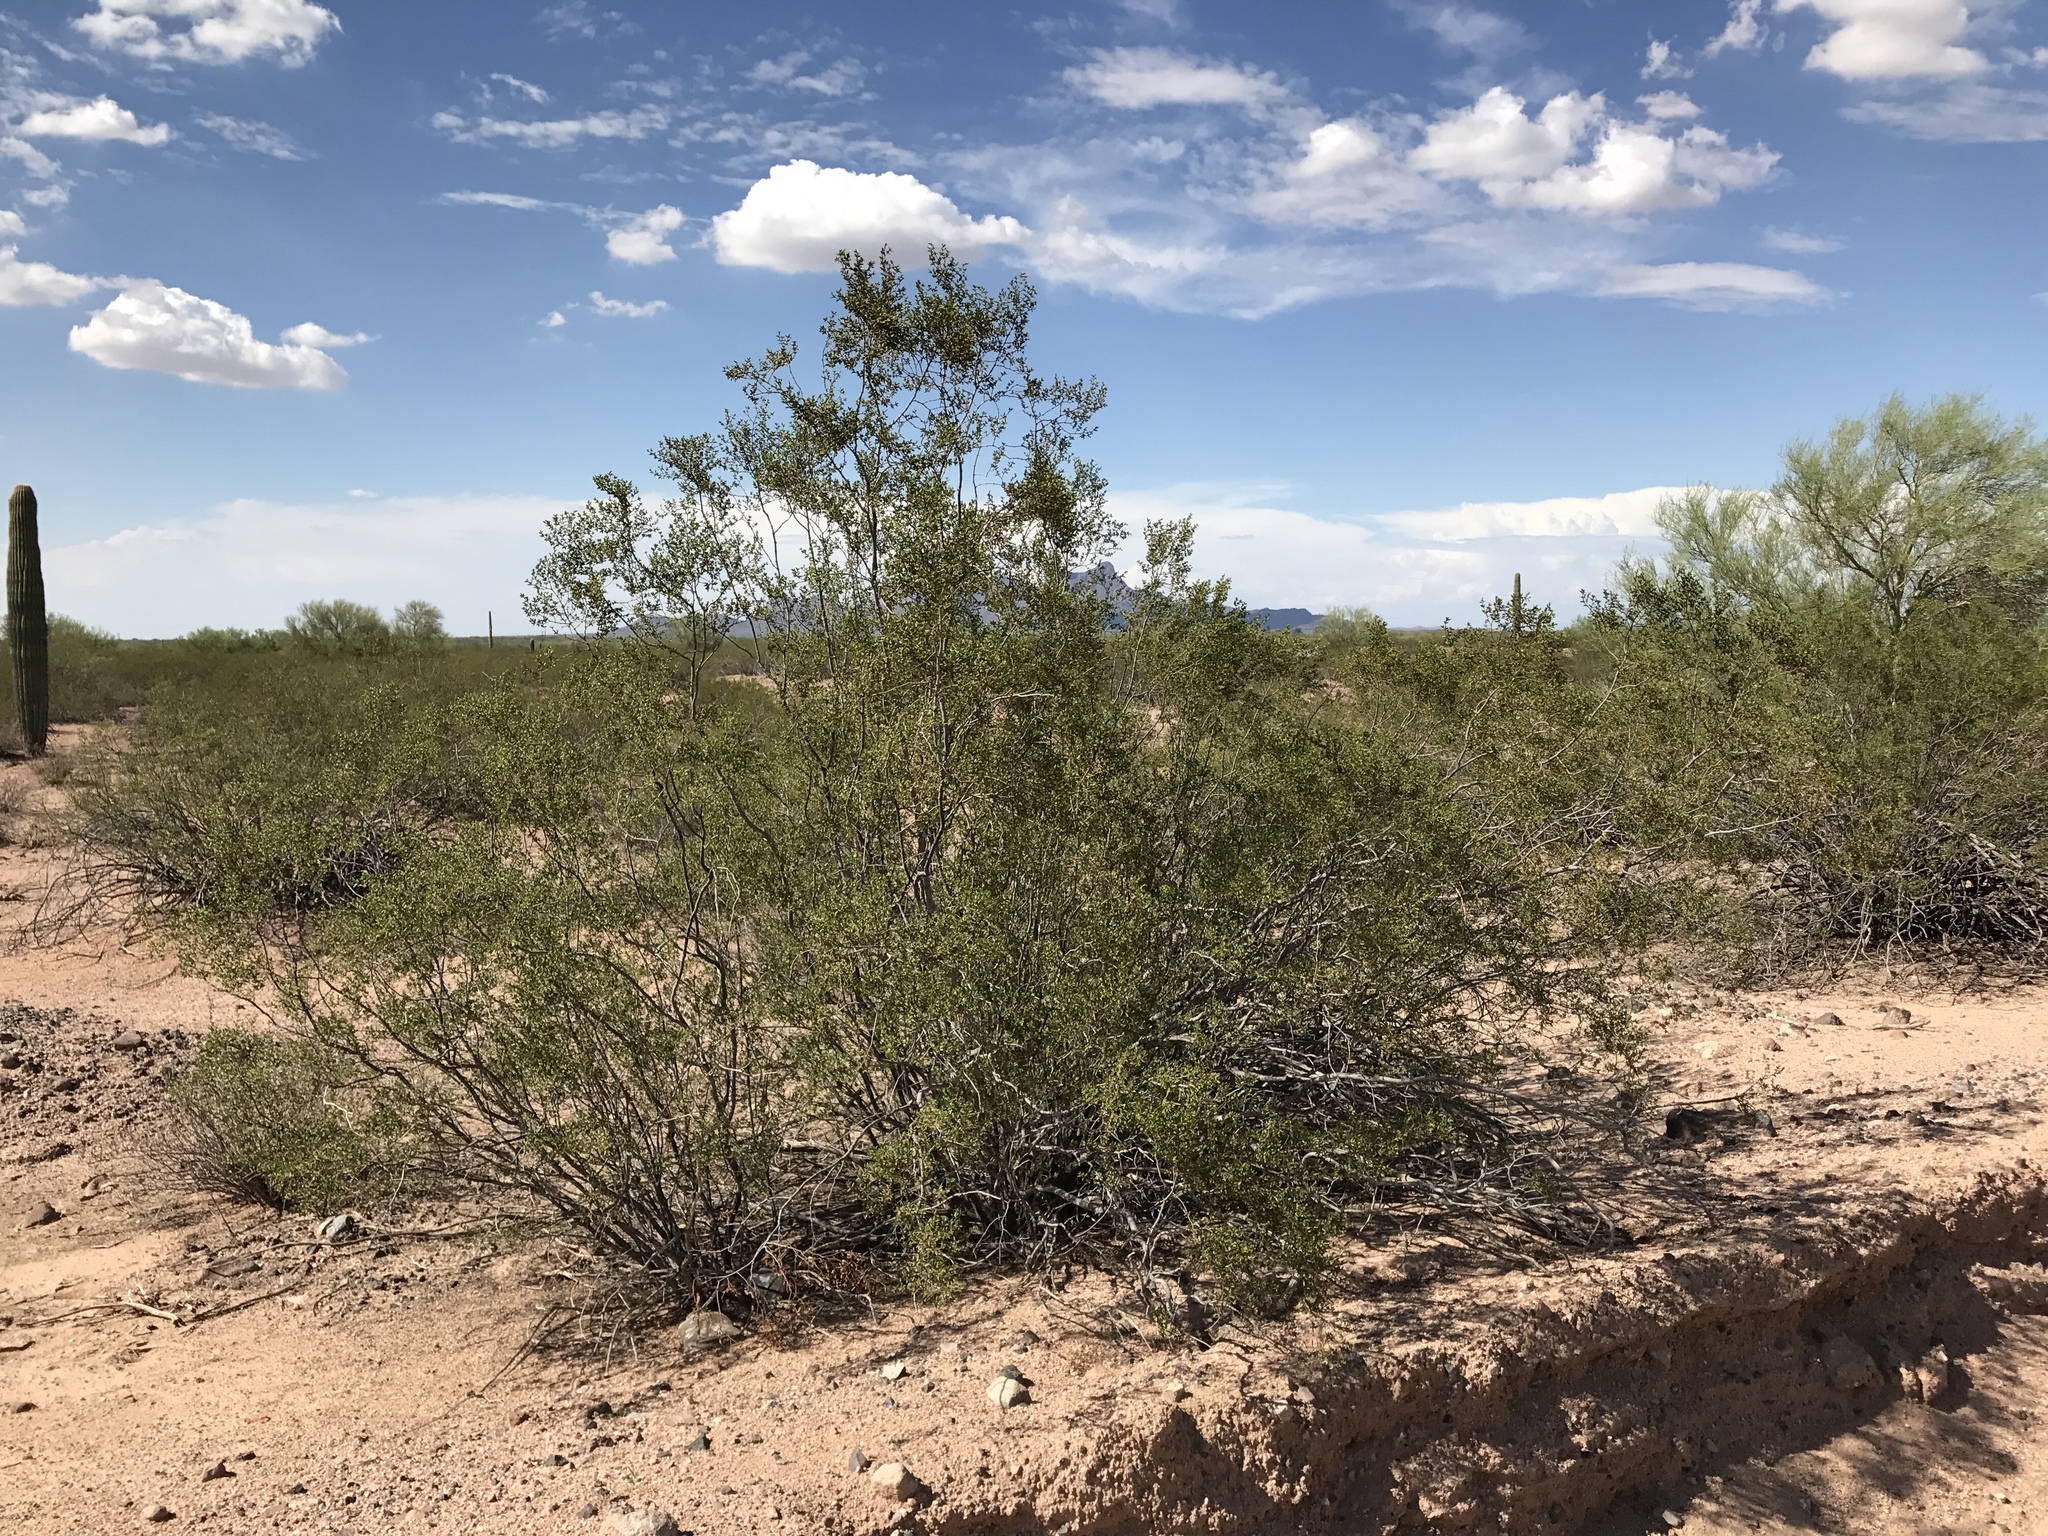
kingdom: Plantae
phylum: Tracheophyta
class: Magnoliopsida
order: Zygophyllales
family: Zygophyllaceae
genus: Larrea
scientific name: Larrea tridentata
